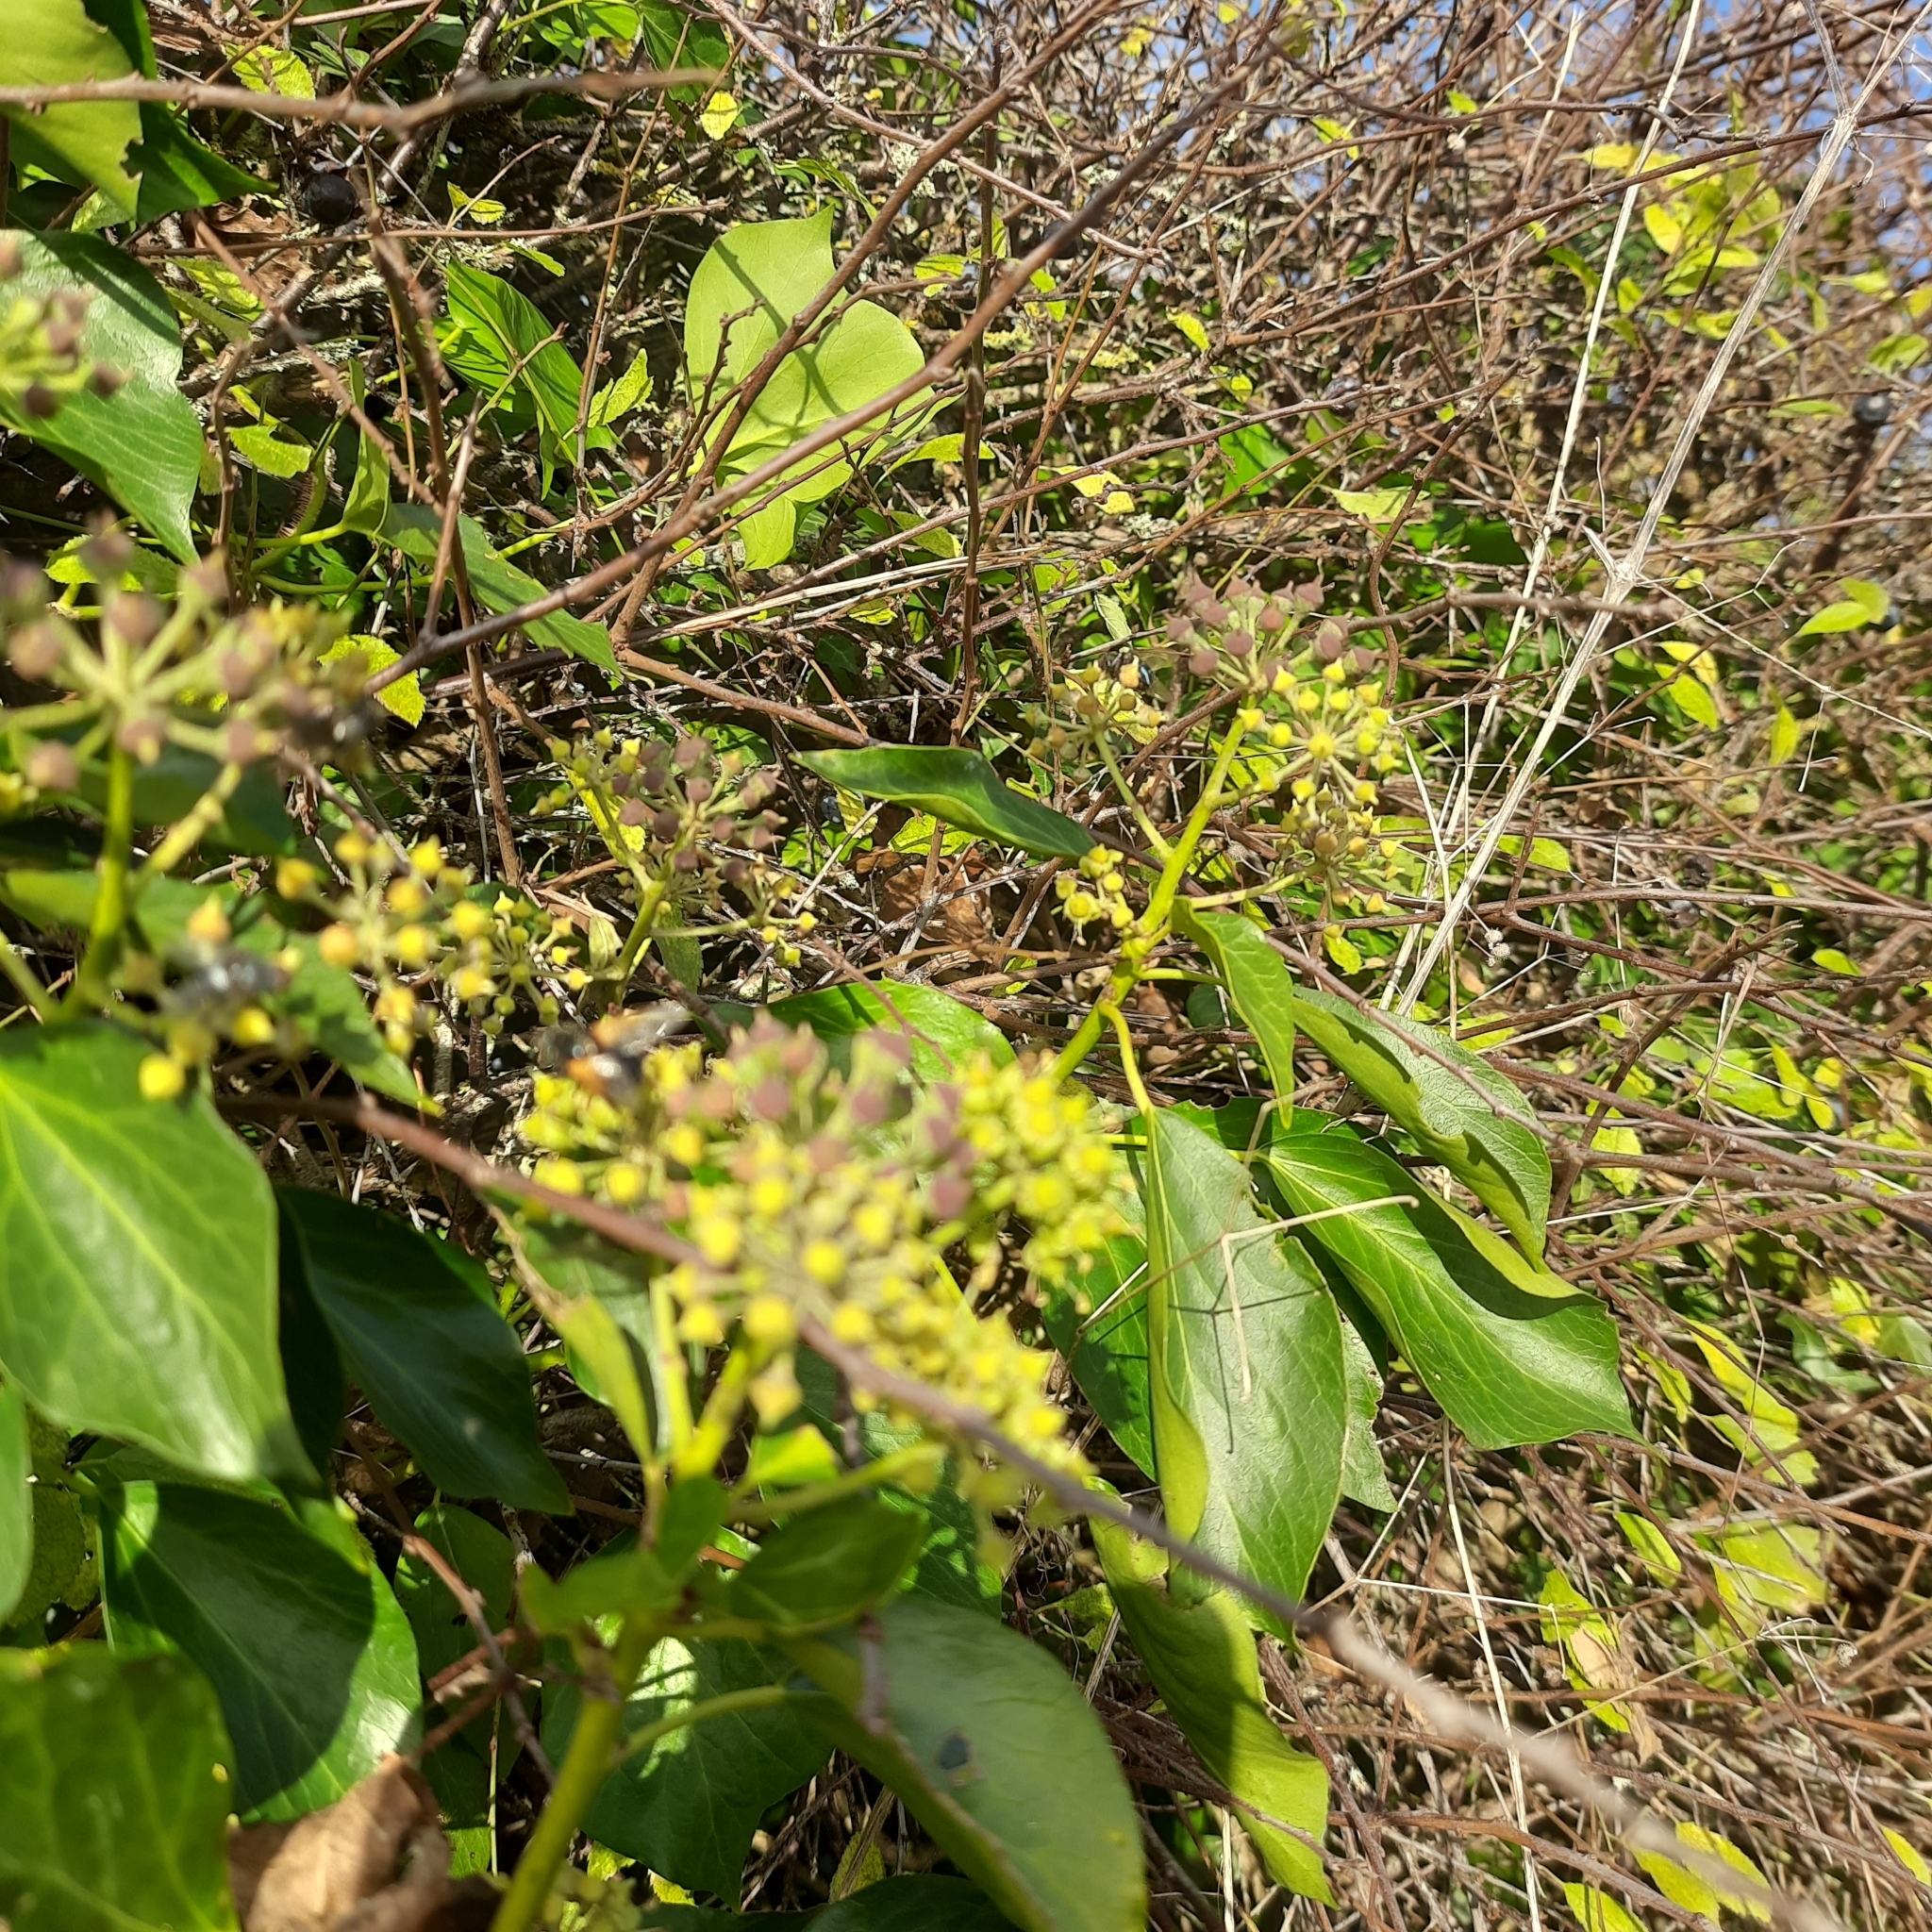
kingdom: Plantae
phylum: Tracheophyta
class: Magnoliopsida
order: Apiales
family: Araliaceae
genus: Hedera
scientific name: Hedera helix
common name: Ivy
